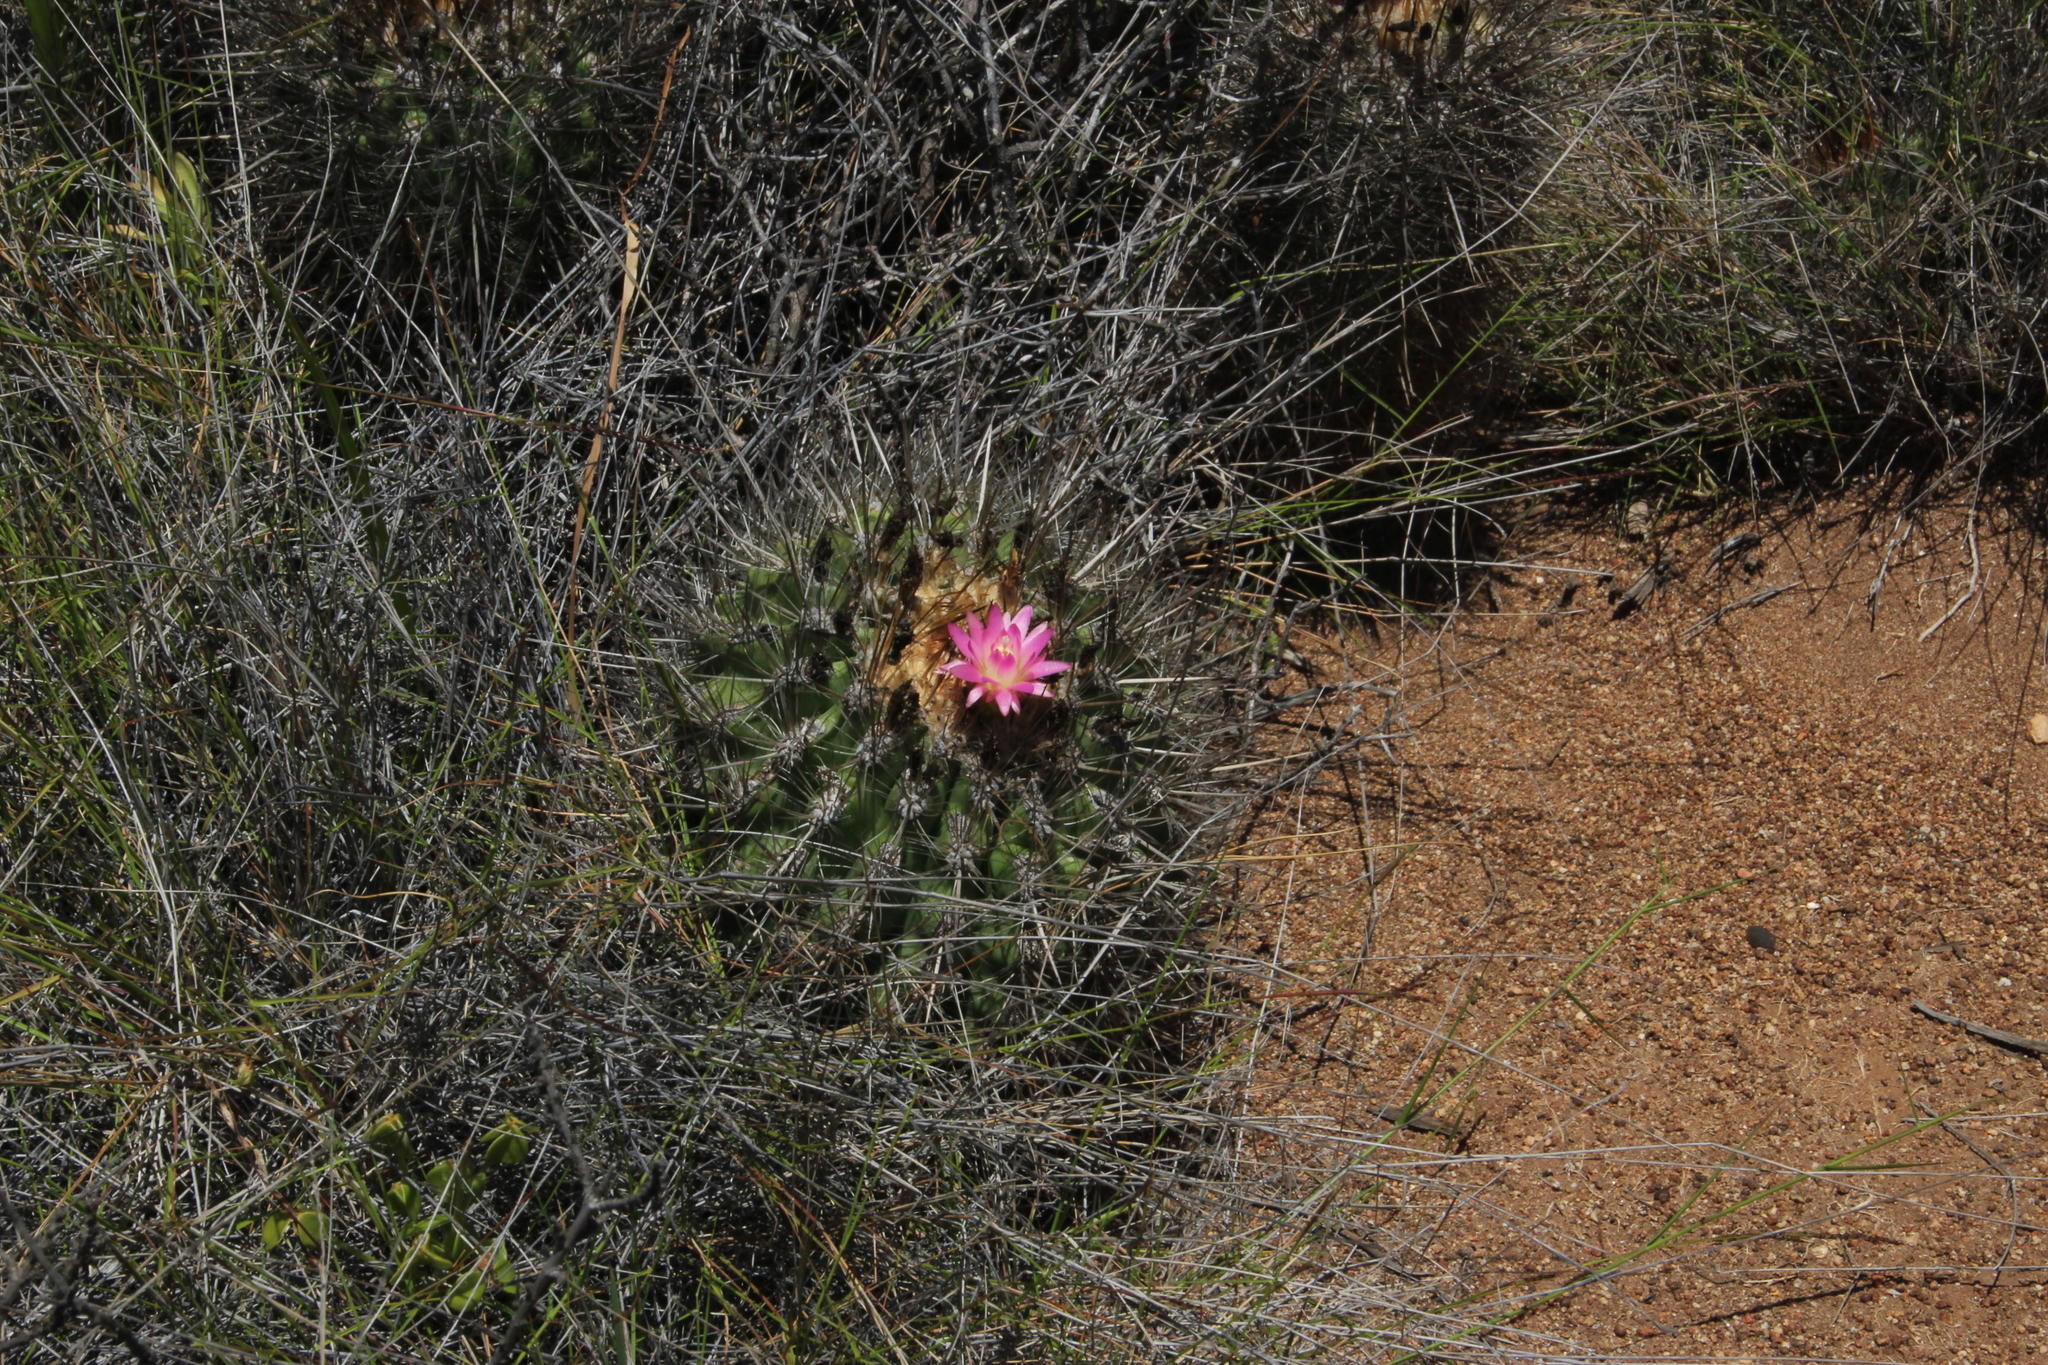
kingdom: Plantae
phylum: Tracheophyta
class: Magnoliopsida
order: Caryophyllales
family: Cactaceae
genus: Eriosyce
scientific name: Eriosyce subgibbosa
